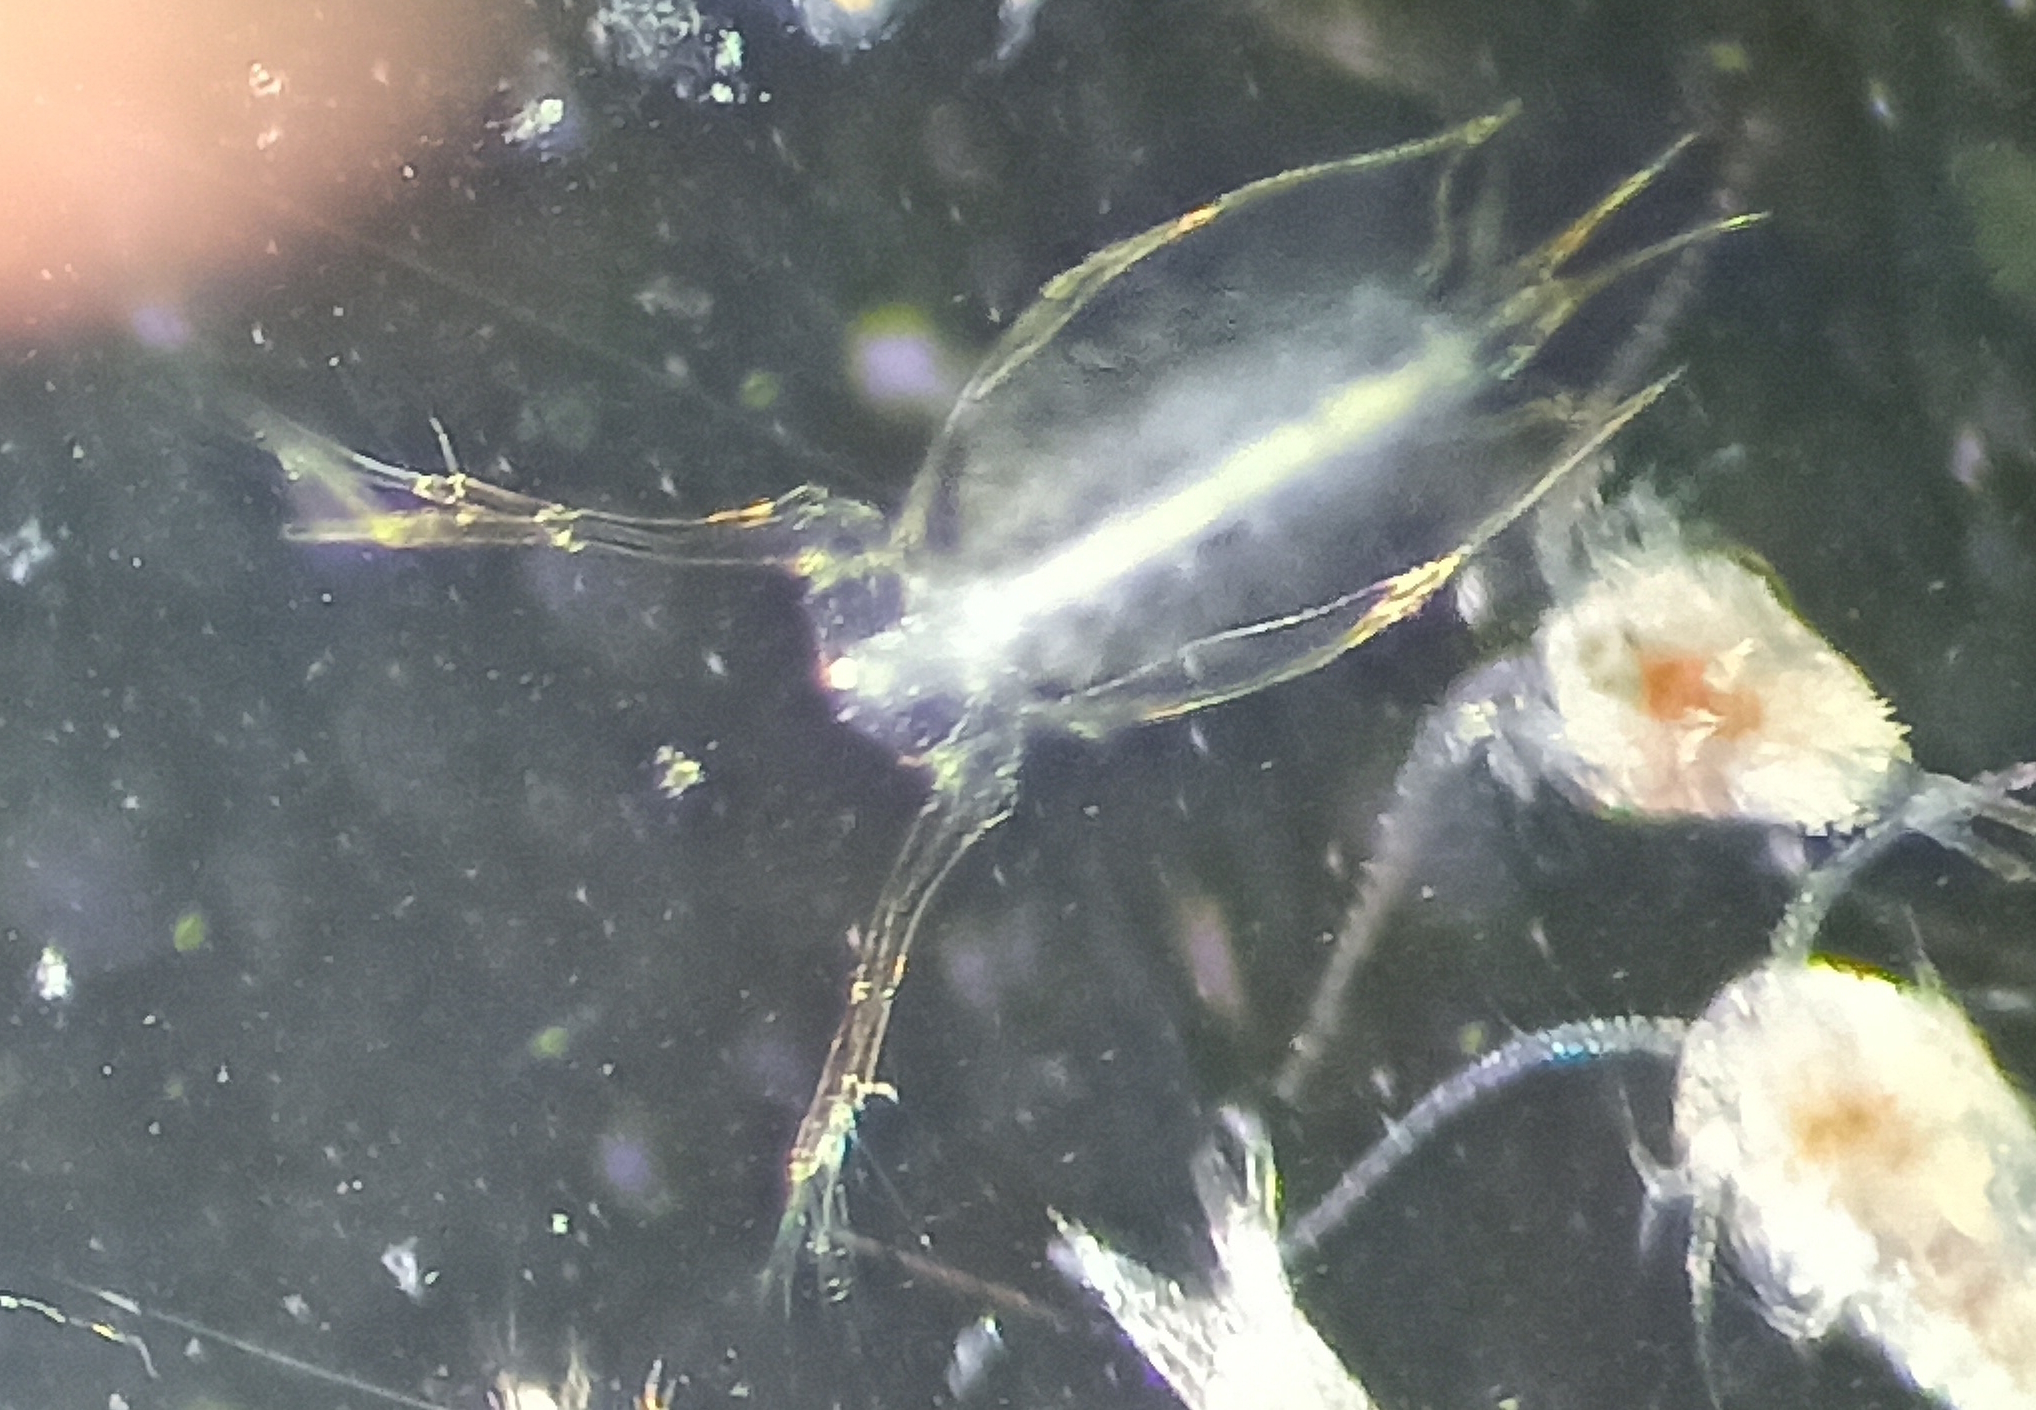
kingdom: Animalia
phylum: Arthropoda
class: Branchiopoda
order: Diplostraca
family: Sididae
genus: Penilia
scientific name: Penilia avirostris
